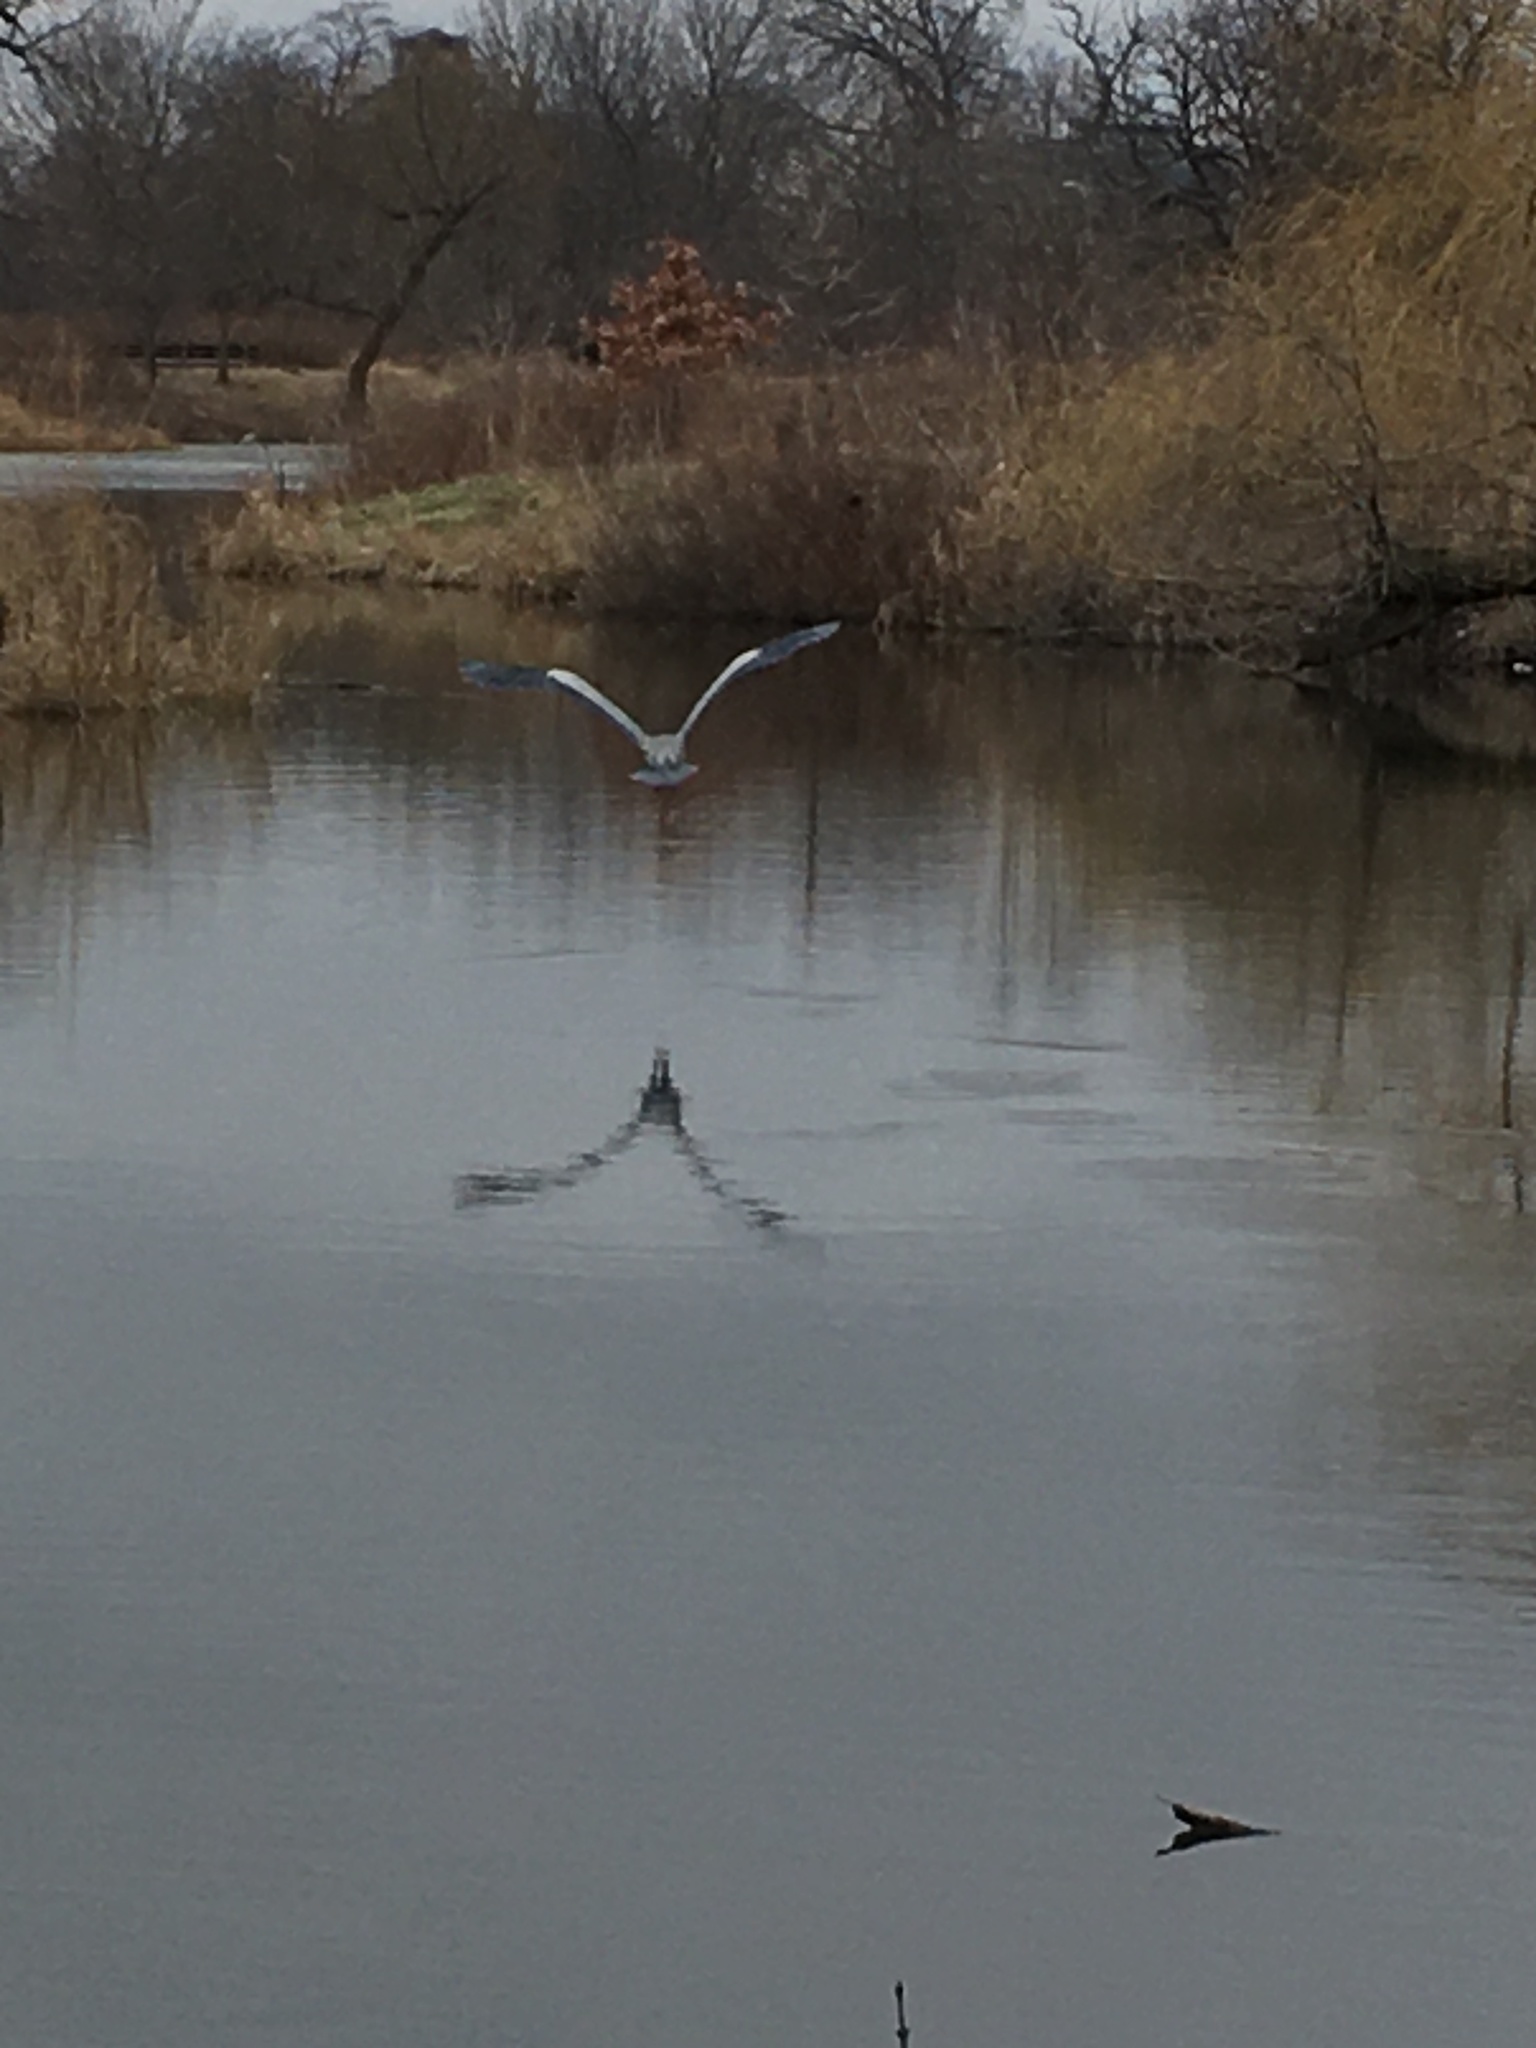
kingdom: Animalia
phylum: Chordata
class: Aves
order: Pelecaniformes
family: Ardeidae
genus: Ardea
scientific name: Ardea herodias
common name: Great blue heron
